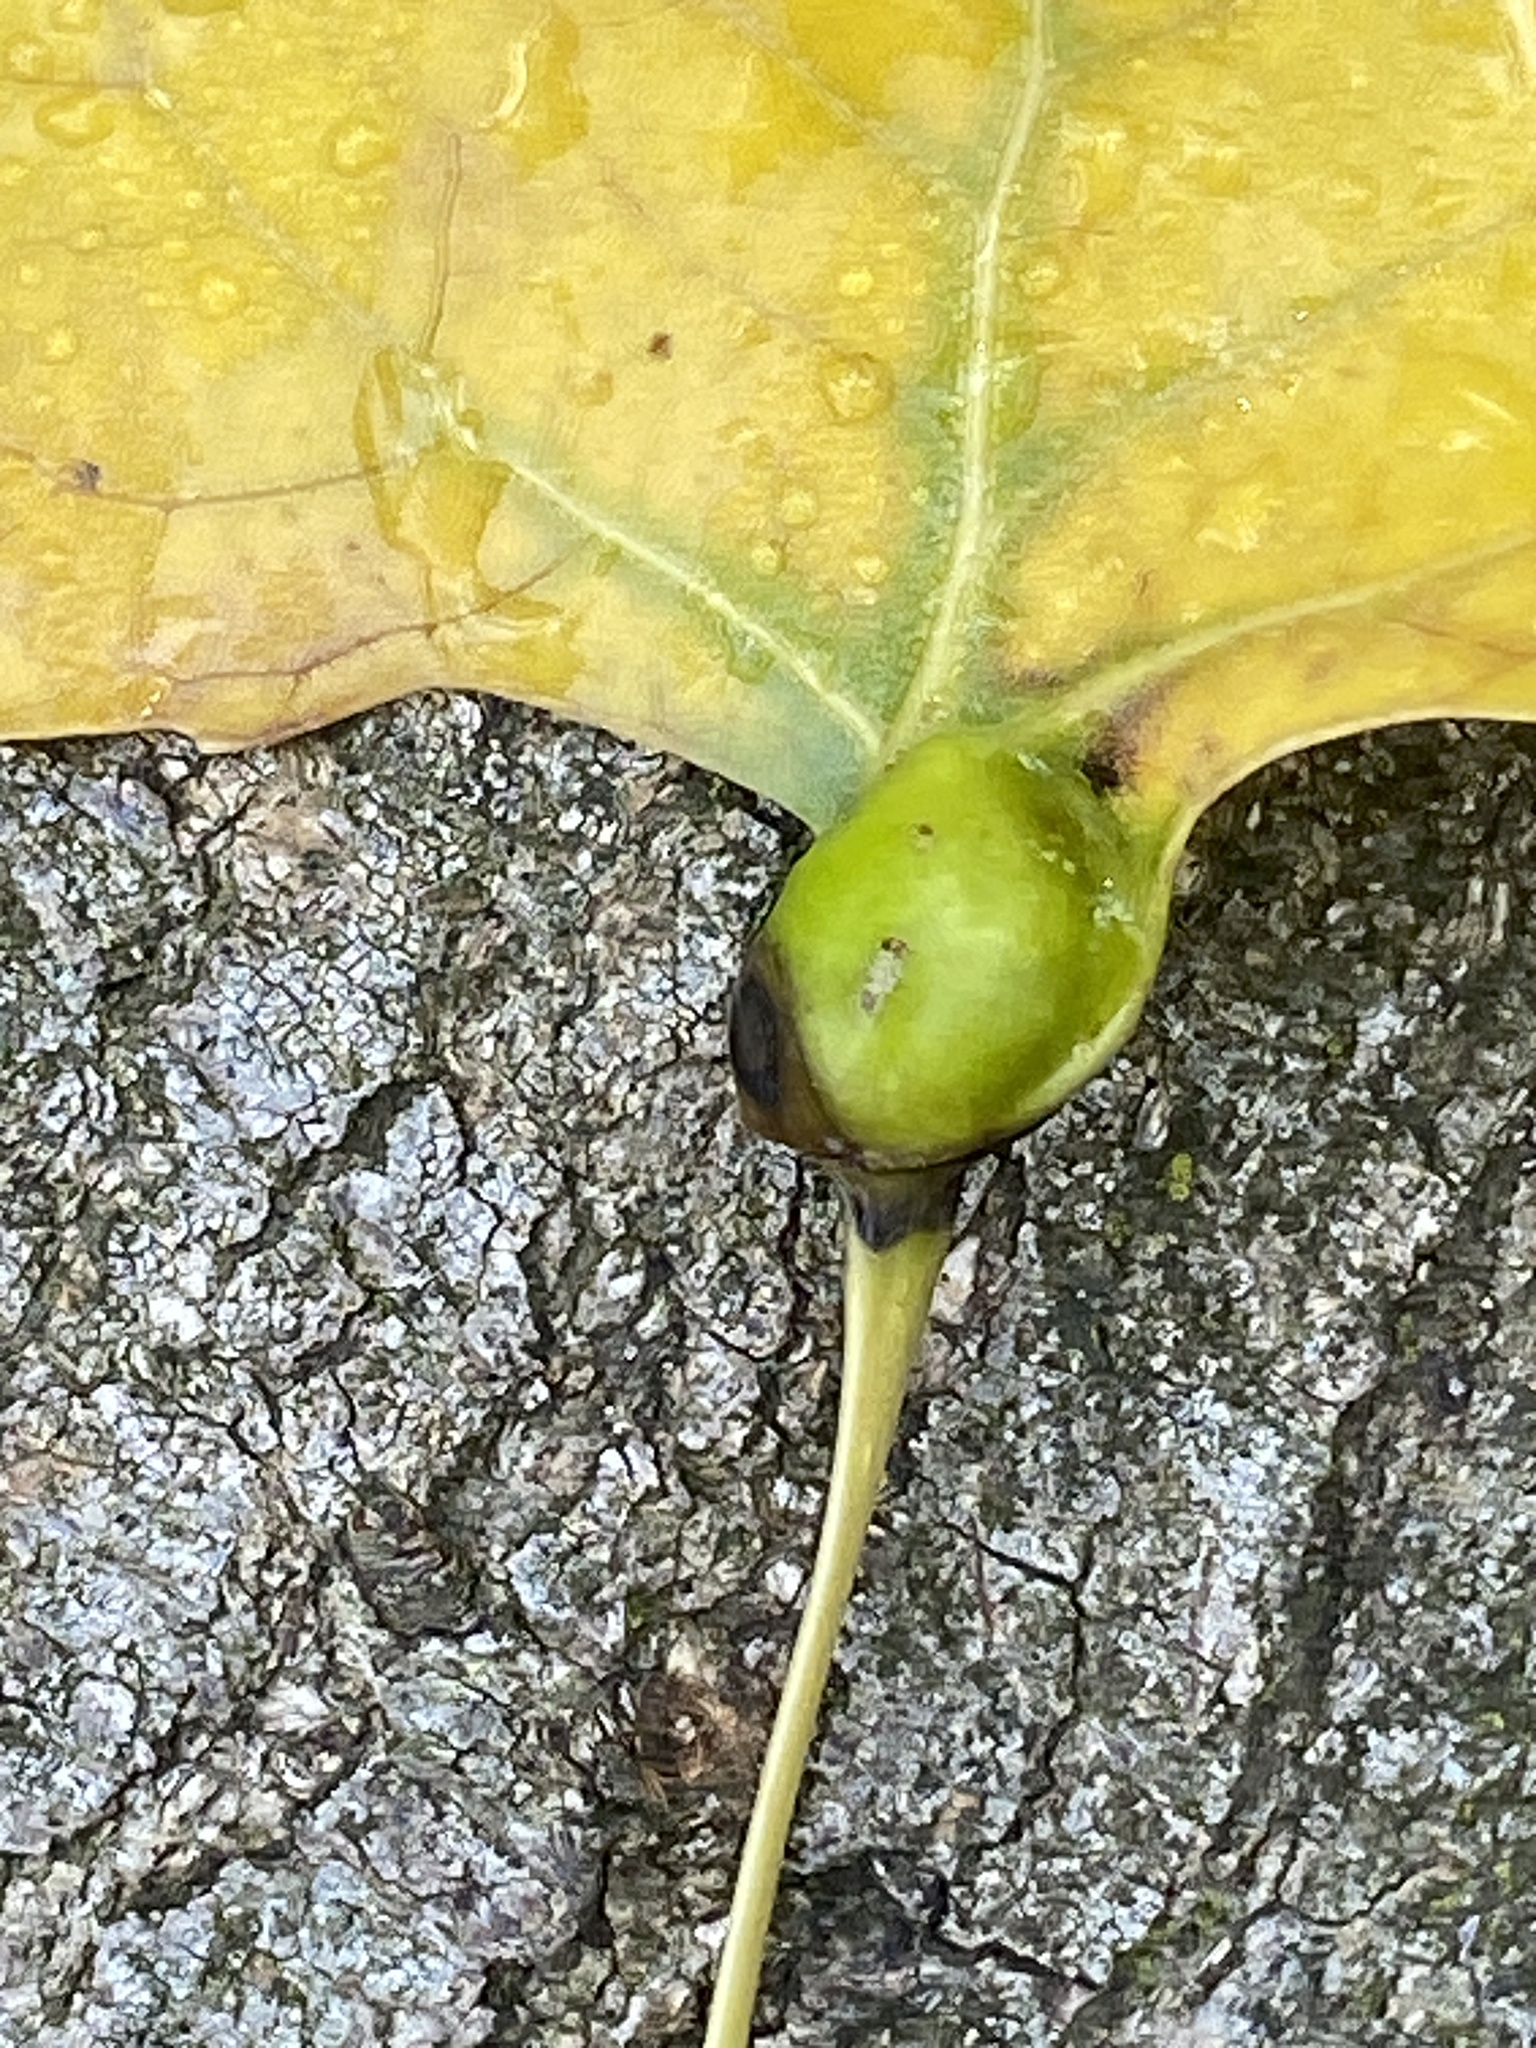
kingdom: Animalia
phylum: Arthropoda
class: Insecta
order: Hemiptera
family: Aphididae
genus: Pemphigus
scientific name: Pemphigus populitransversus
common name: Poplar petiolegall aphid
